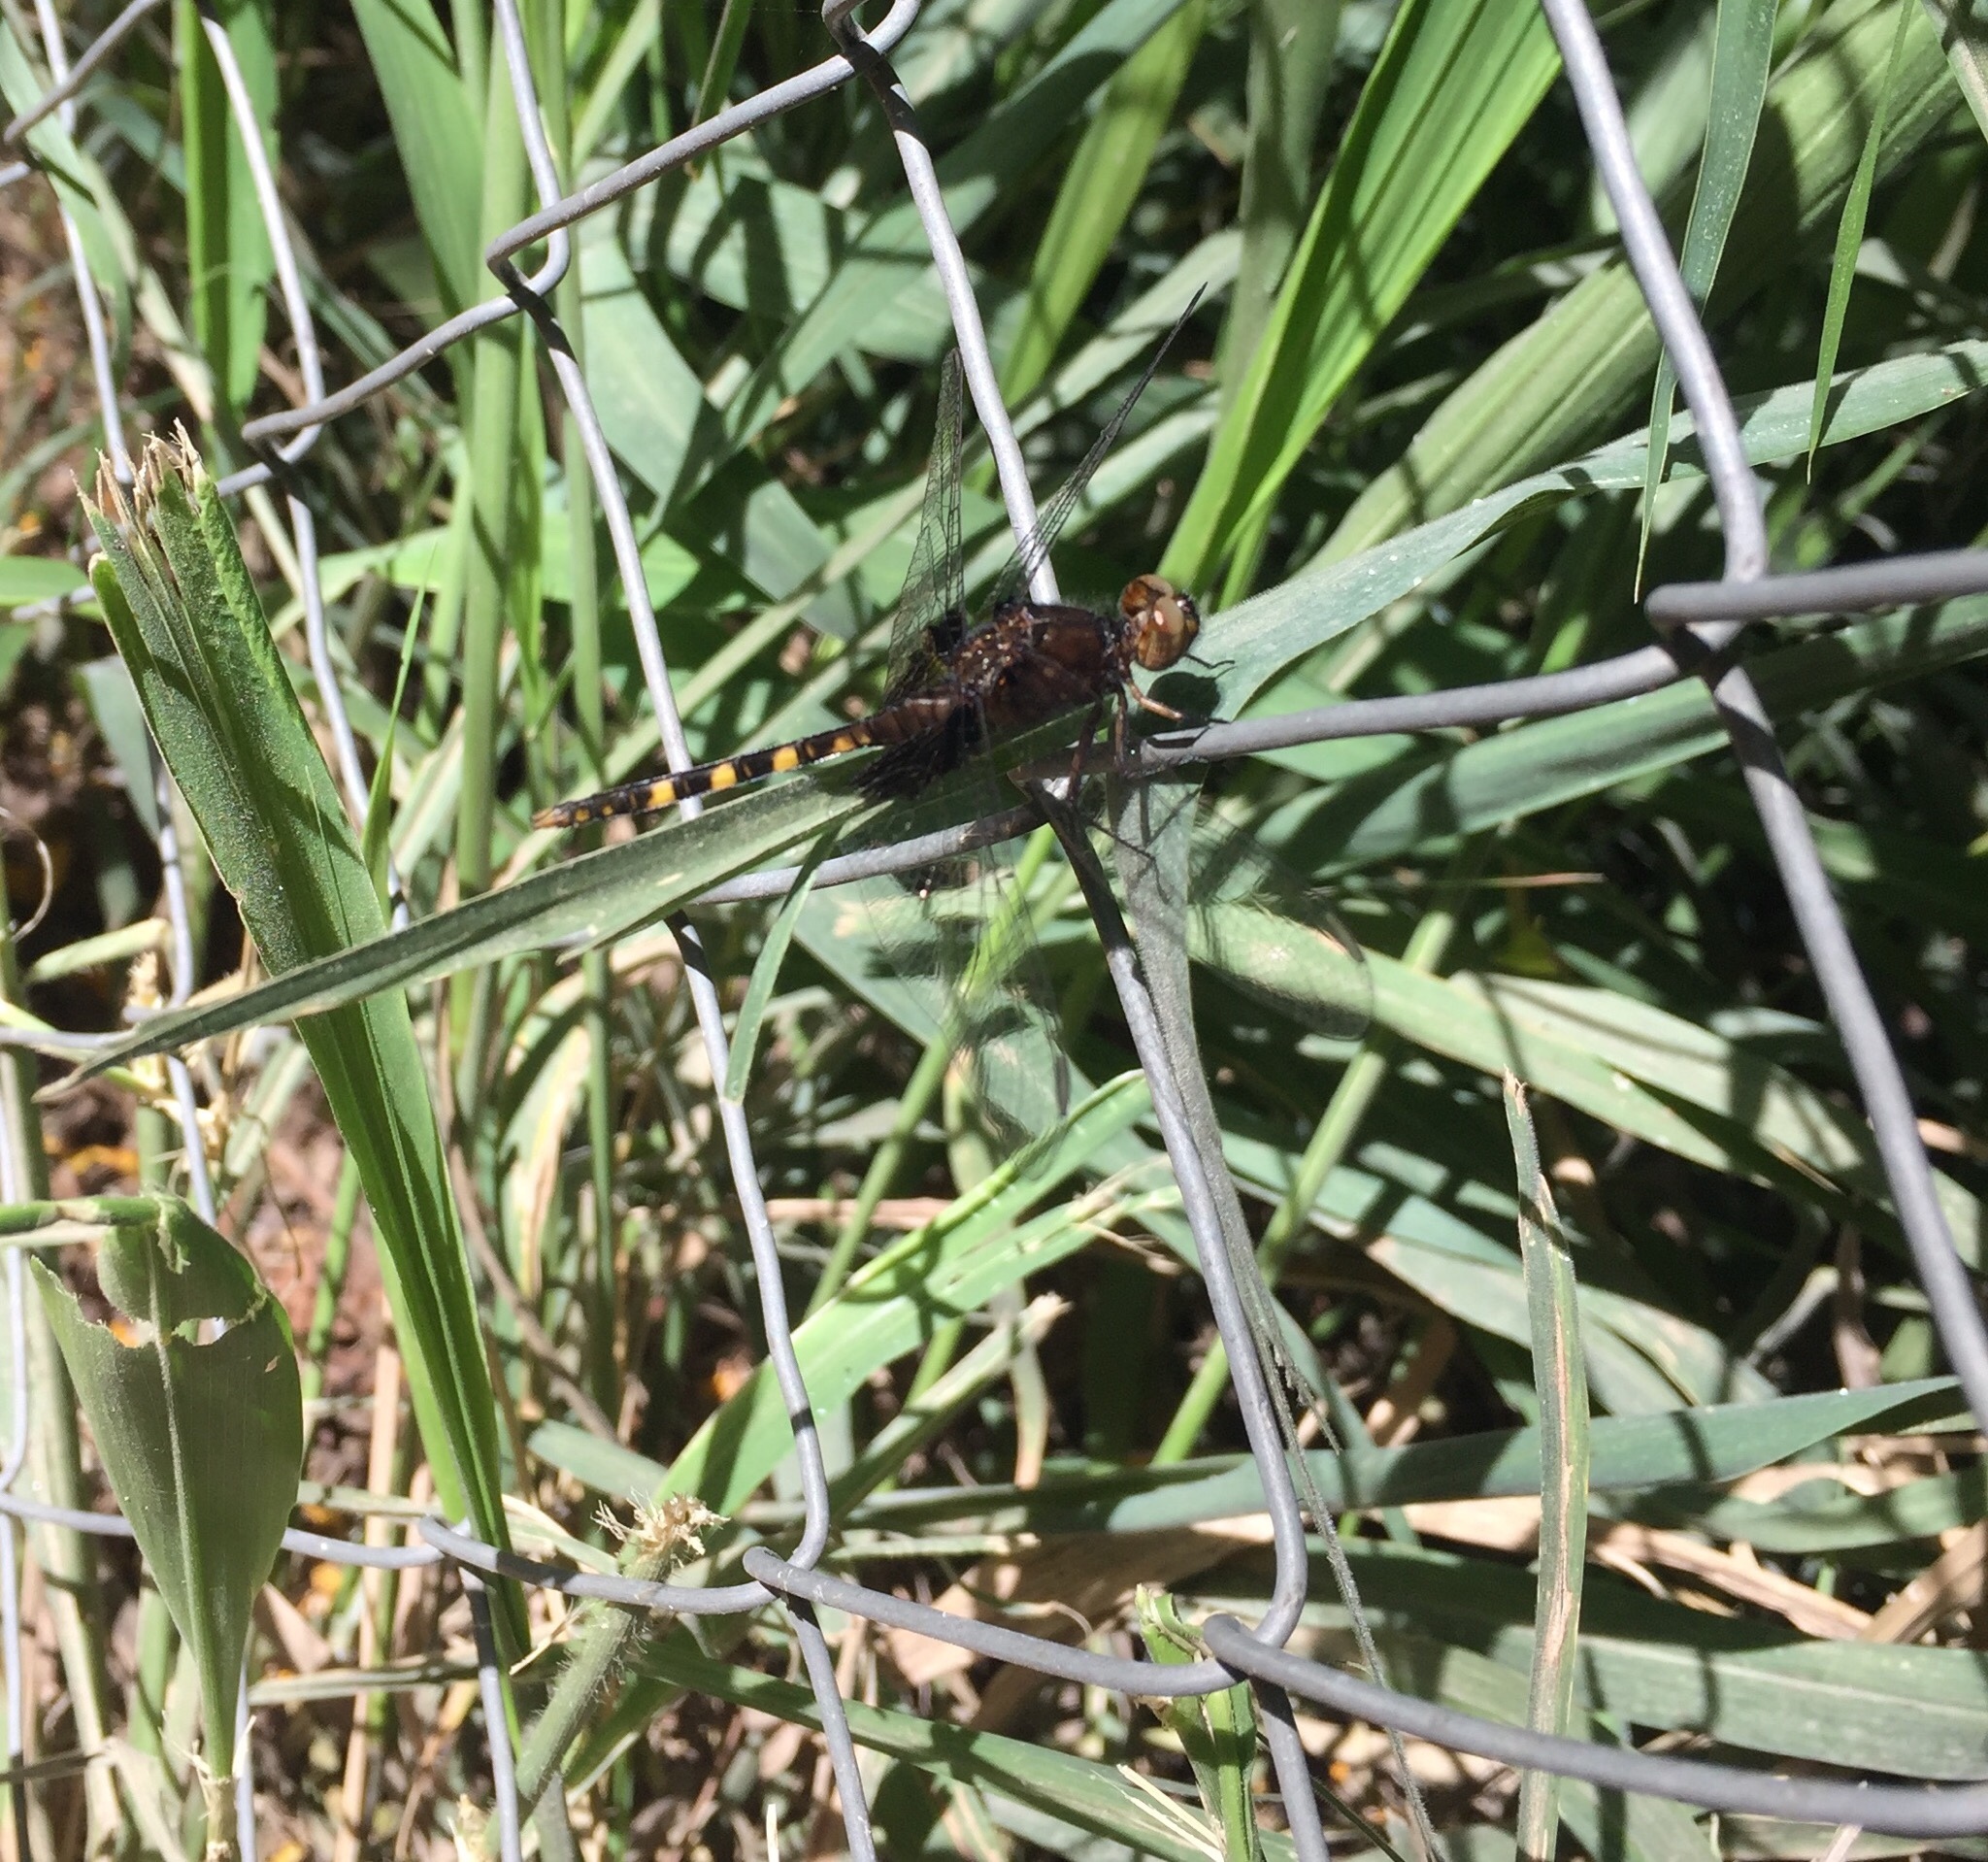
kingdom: Animalia
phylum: Arthropoda
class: Insecta
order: Odonata
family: Libellulidae
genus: Erythemis
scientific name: Erythemis attala
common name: Black pondhawk
